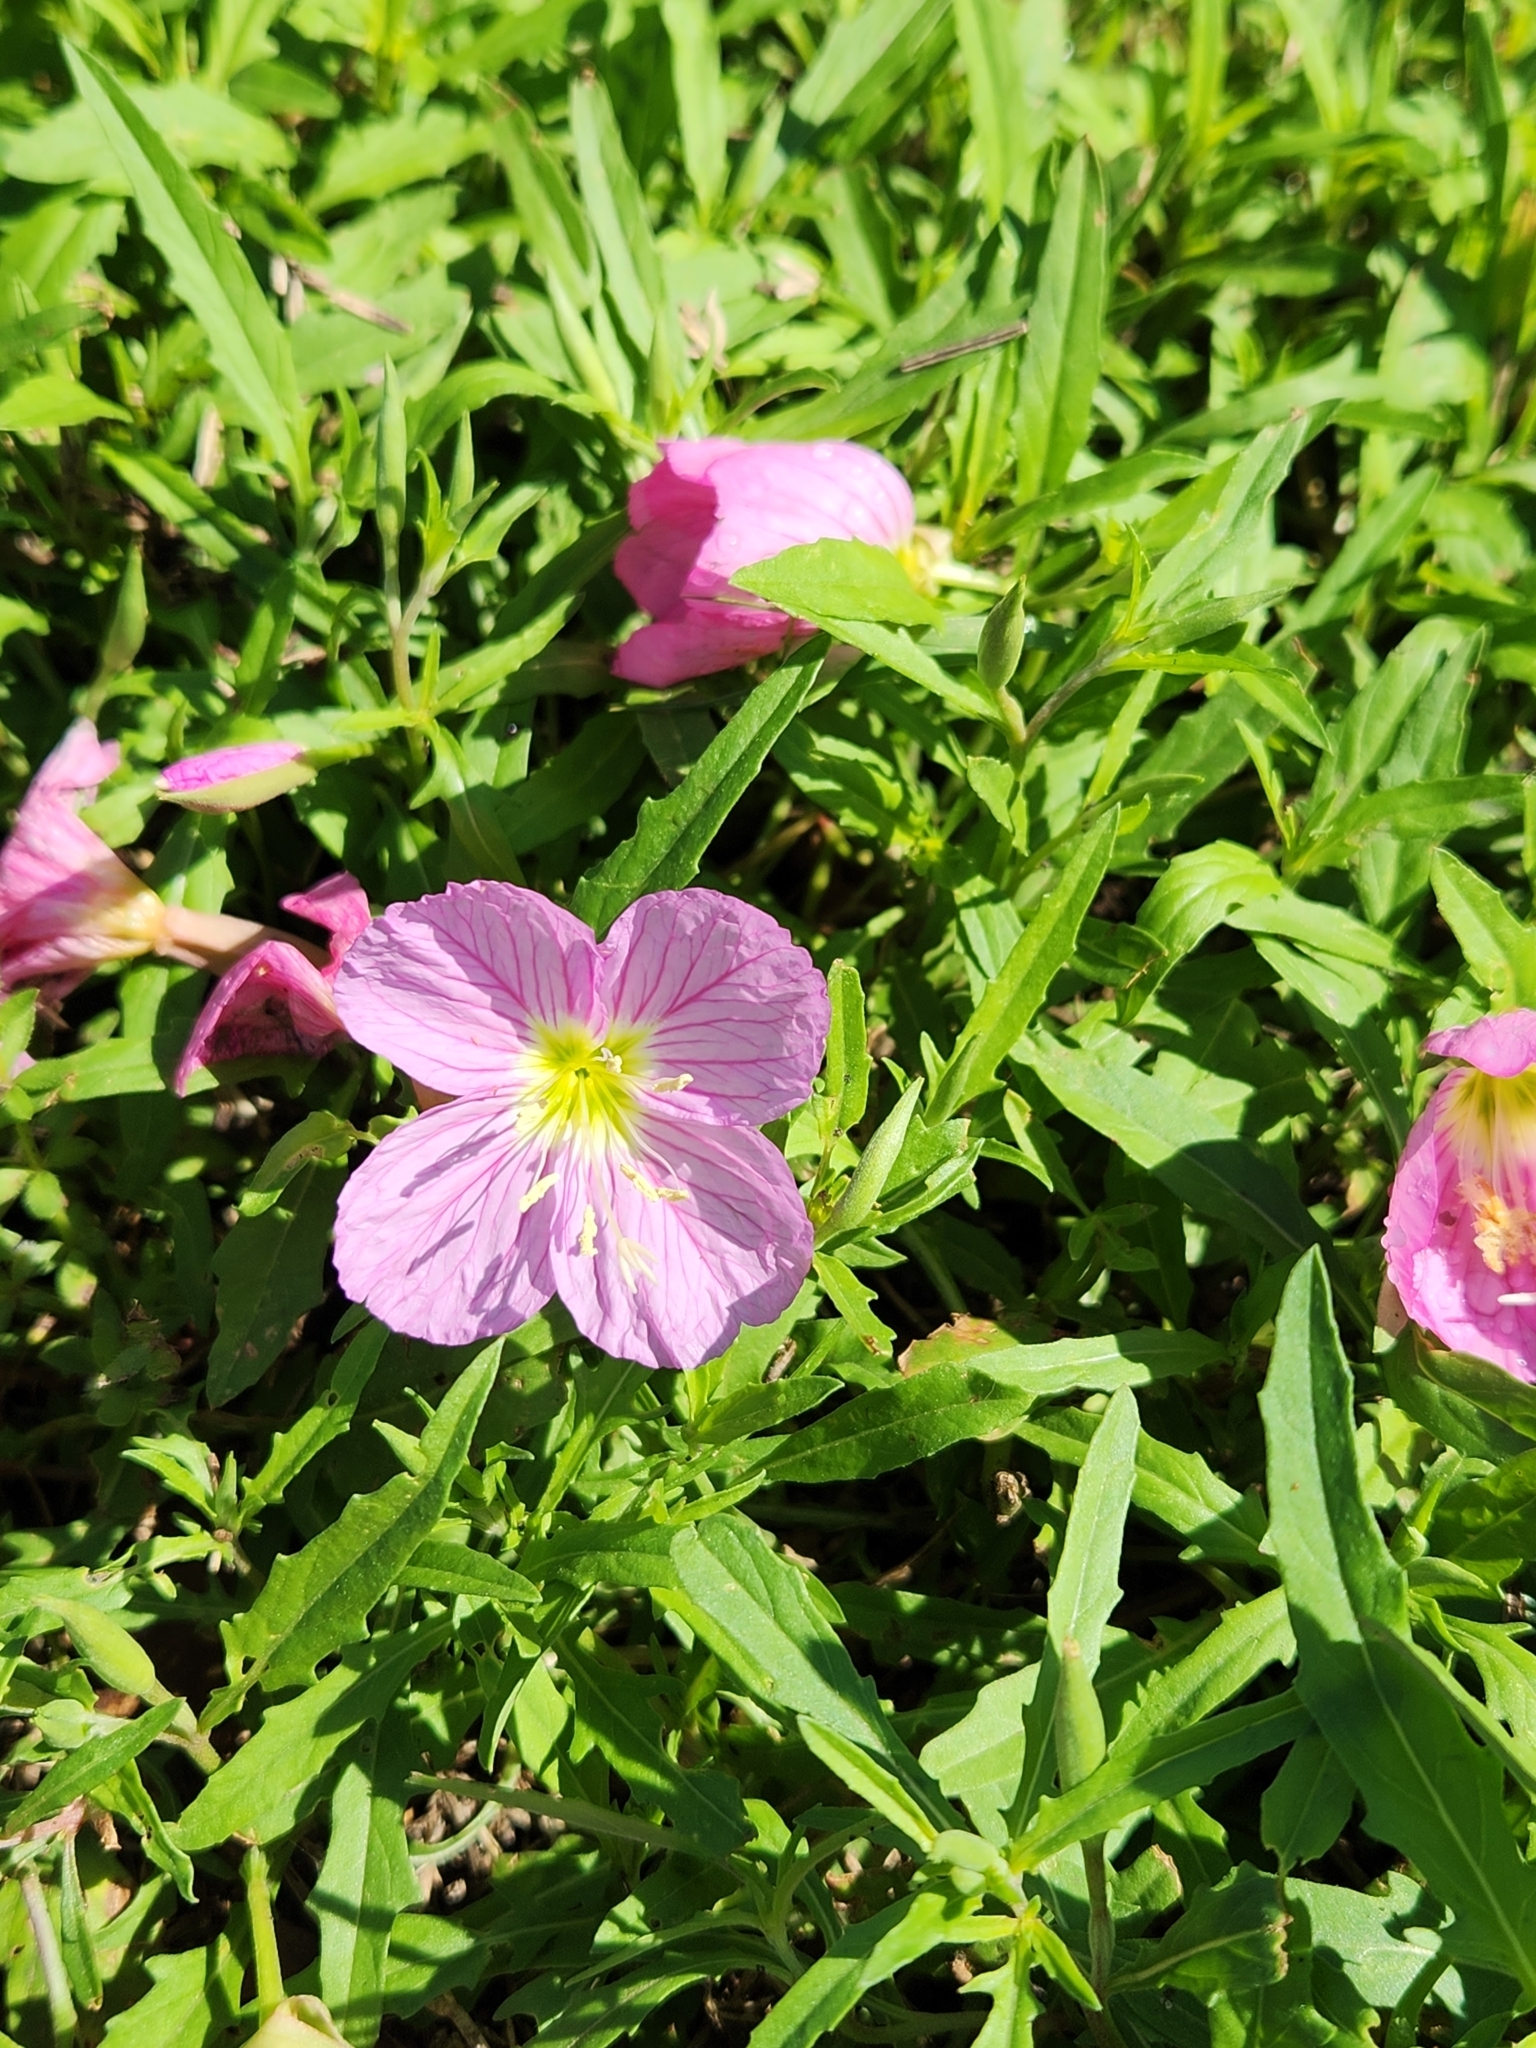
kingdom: Plantae
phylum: Tracheophyta
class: Magnoliopsida
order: Myrtales
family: Onagraceae
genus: Oenothera
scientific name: Oenothera speciosa
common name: White evening-primrose
